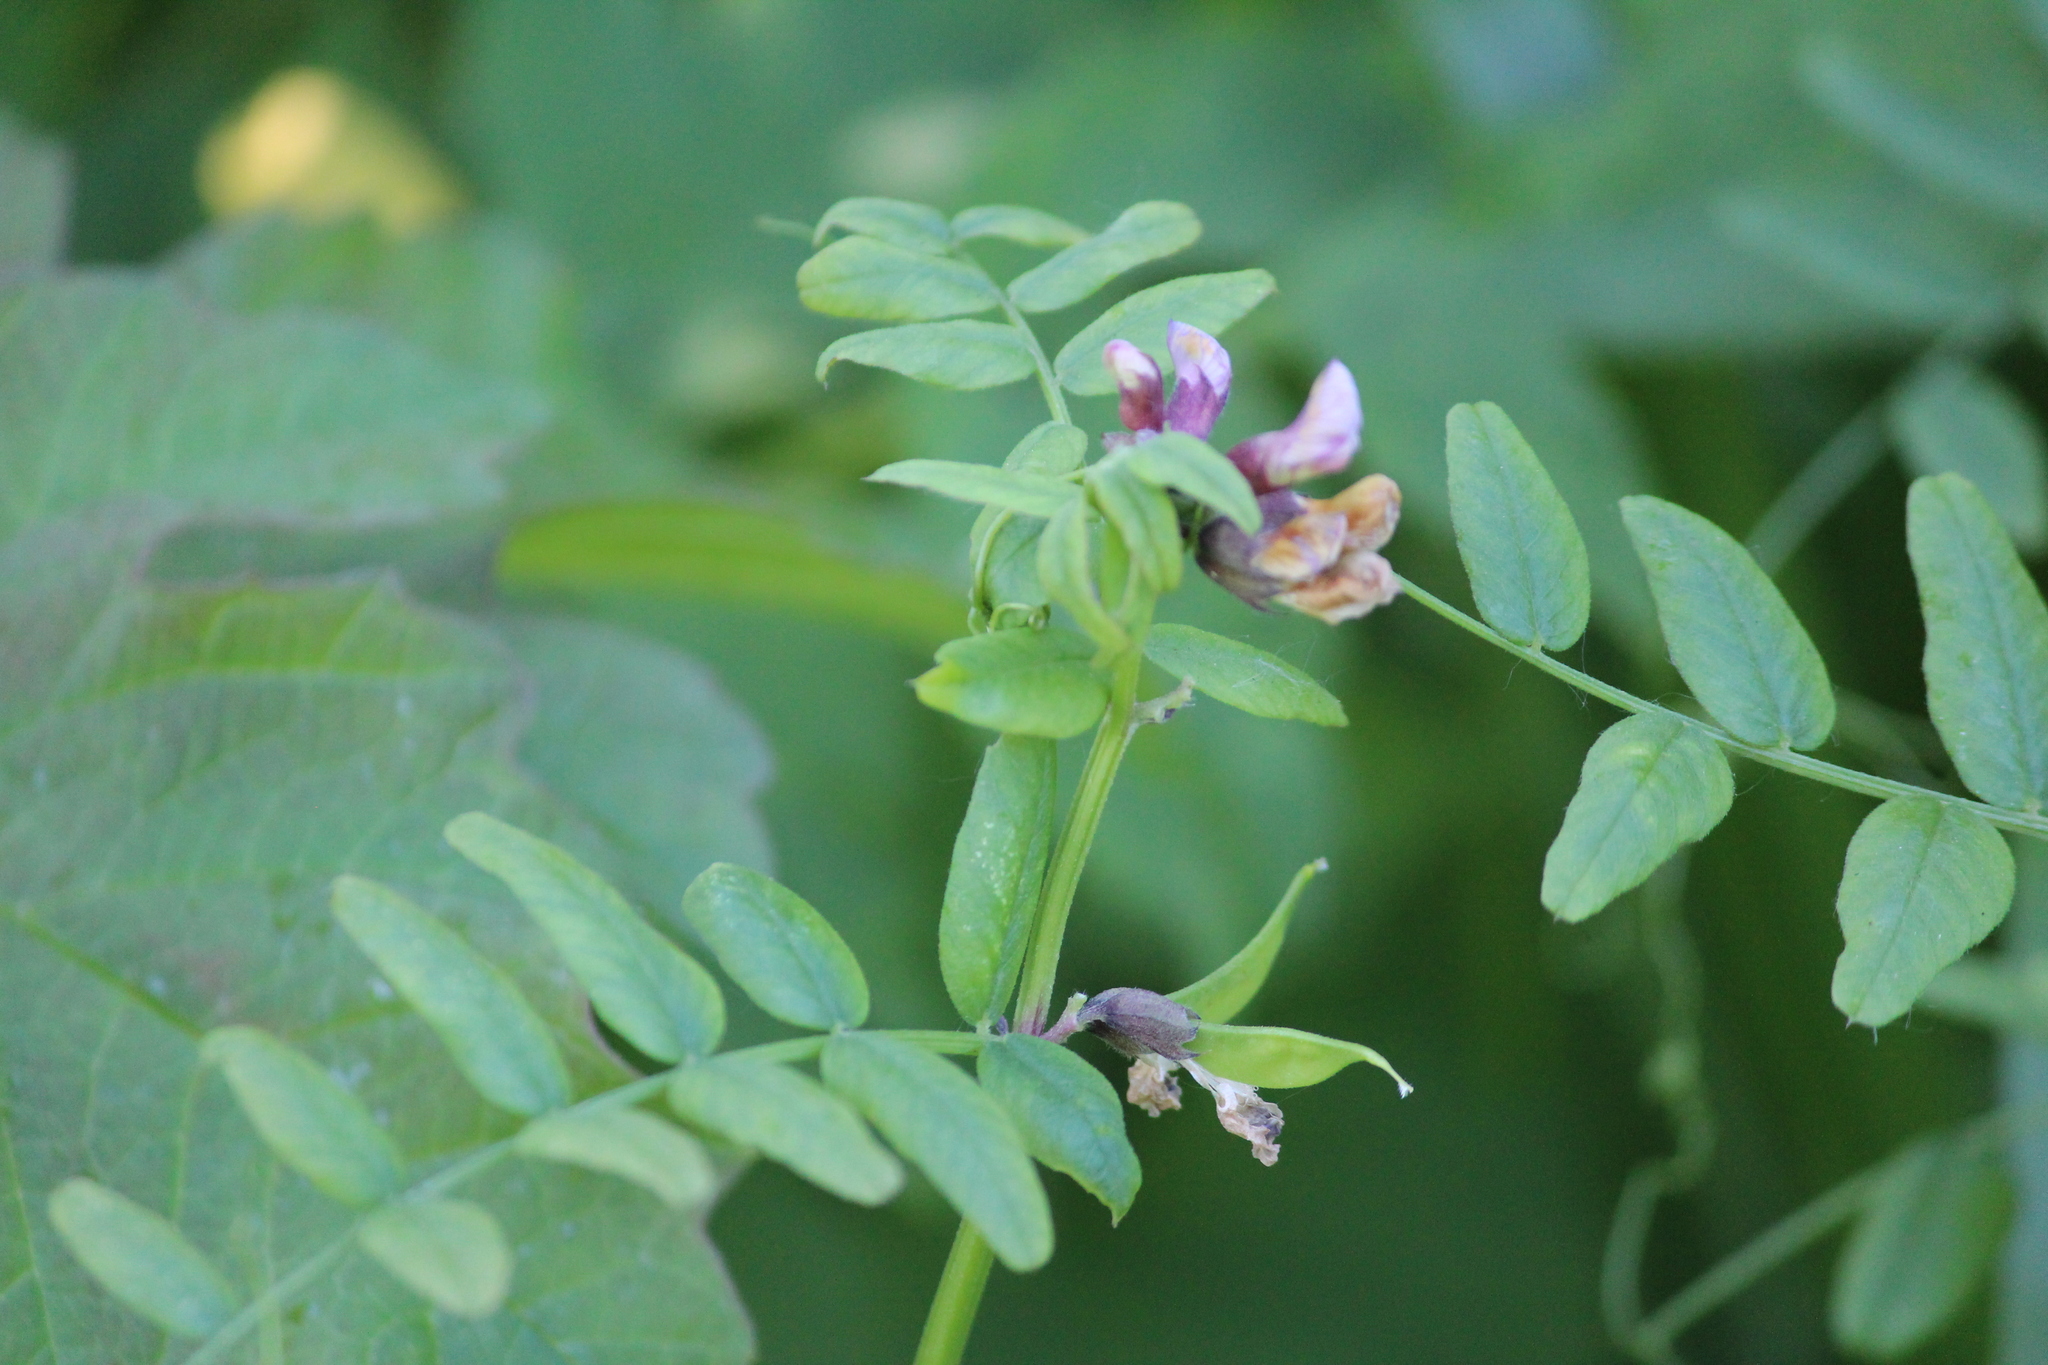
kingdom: Plantae
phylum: Tracheophyta
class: Magnoliopsida
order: Fabales
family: Fabaceae
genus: Vicia
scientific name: Vicia sepium
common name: Bush vetch
